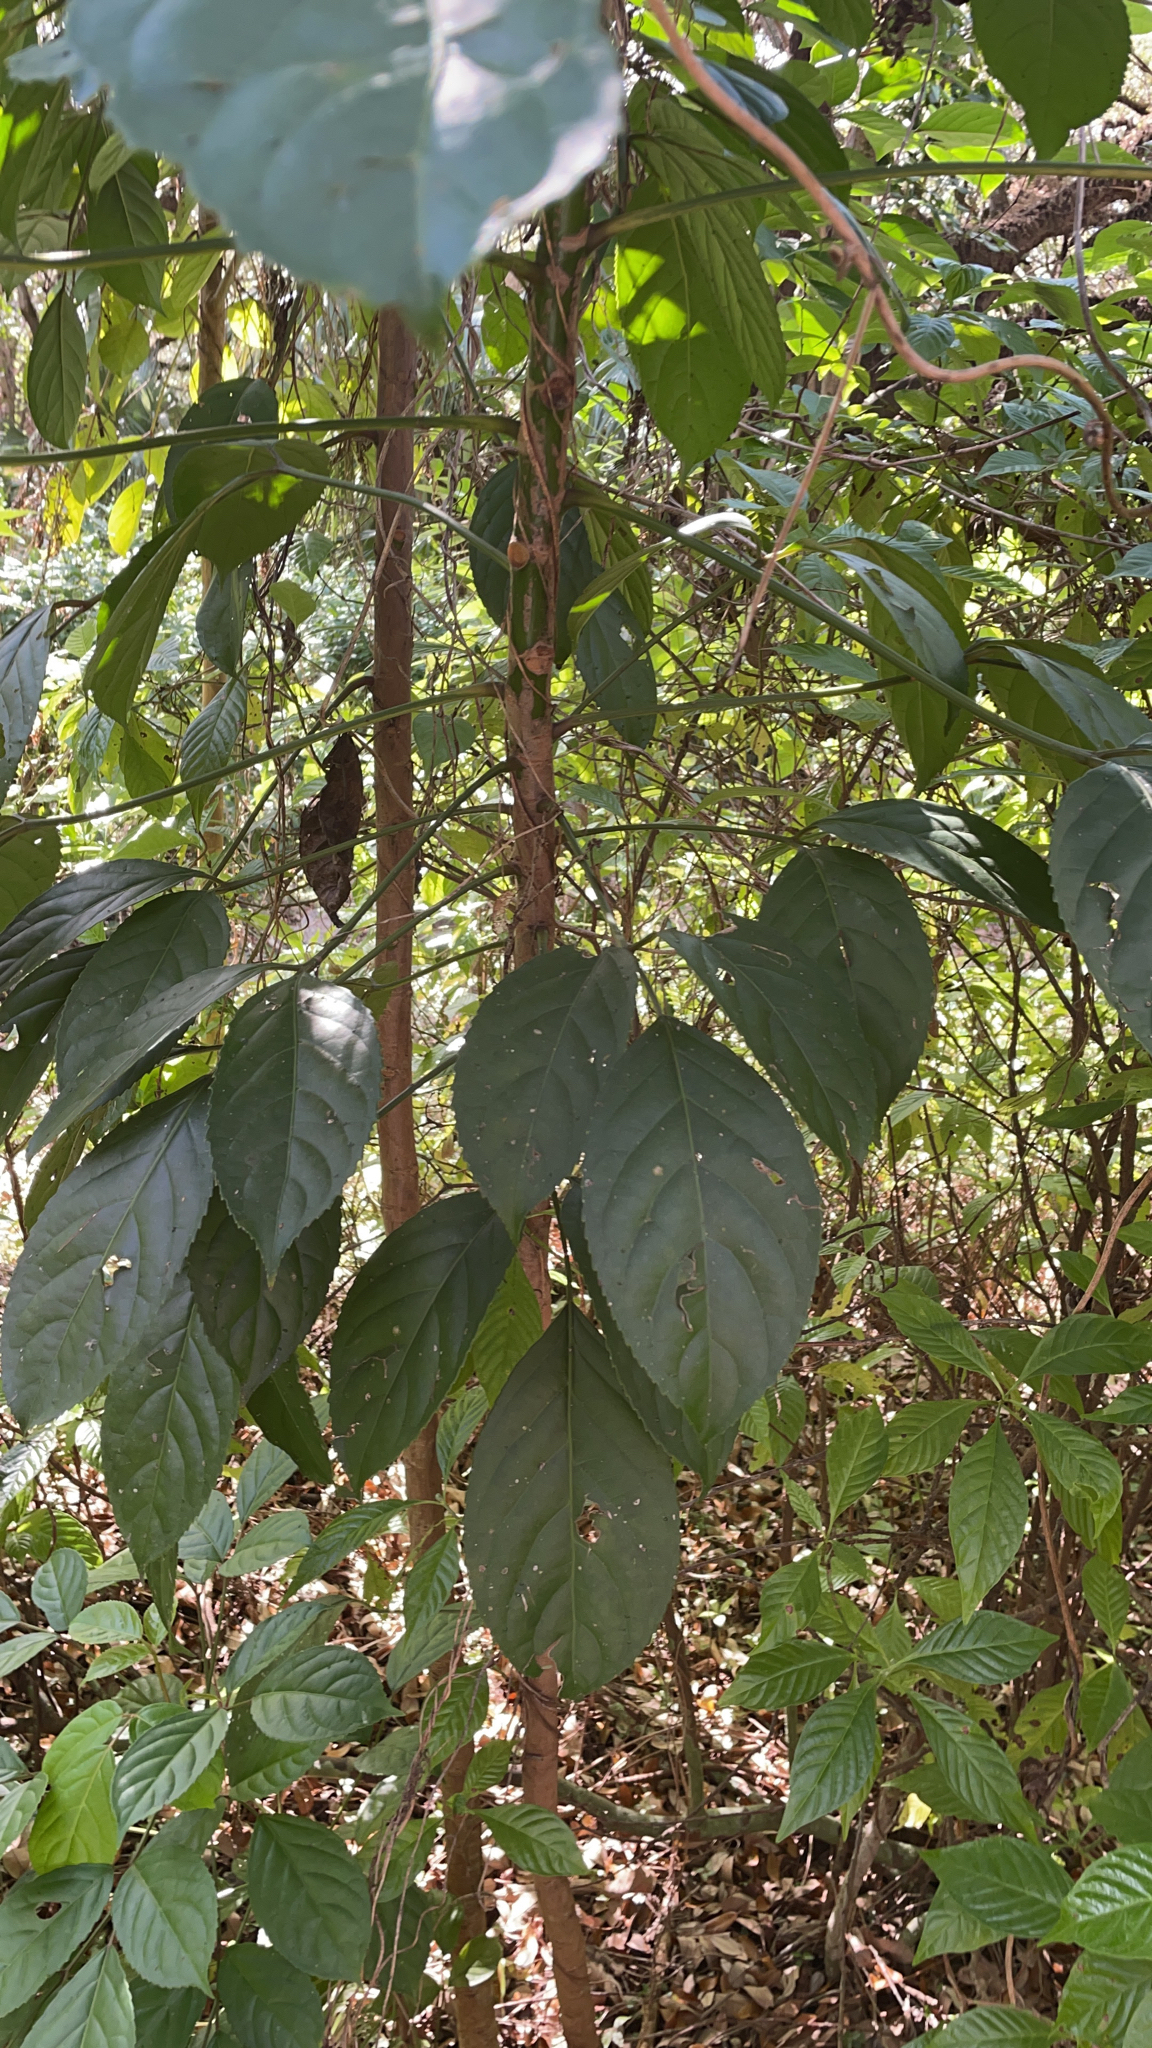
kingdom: Plantae
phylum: Tracheophyta
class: Magnoliopsida
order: Malpighiales
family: Phyllanthaceae
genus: Bischofia
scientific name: Bischofia javanica
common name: Javanese bishopwood
